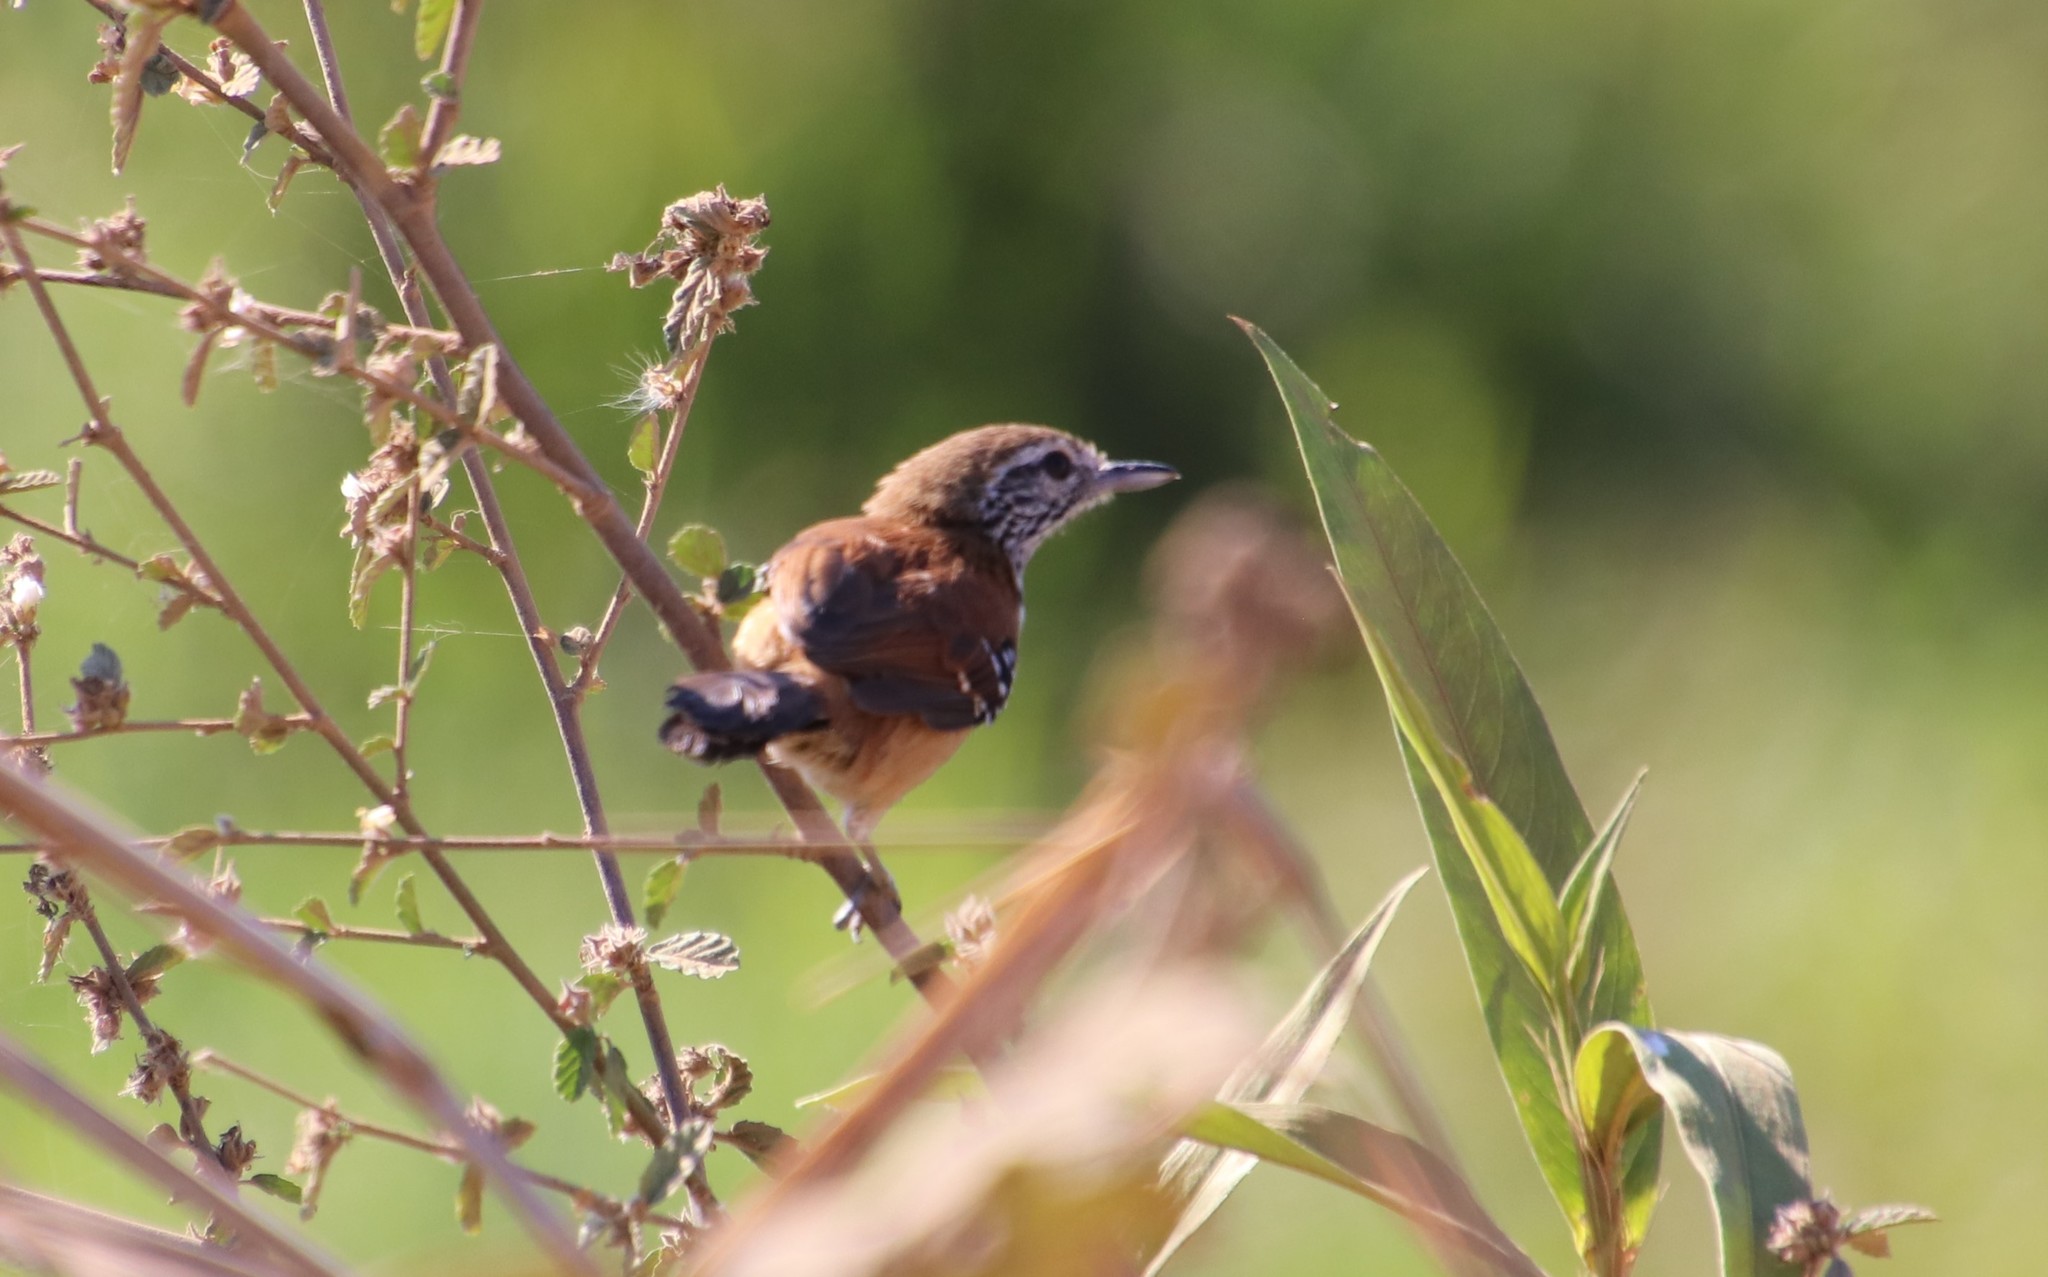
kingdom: Animalia
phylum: Chordata
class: Aves
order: Passeriformes
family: Thamnophilidae
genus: Formicivora
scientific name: Formicivora rufa
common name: Rusty-backed antwren
